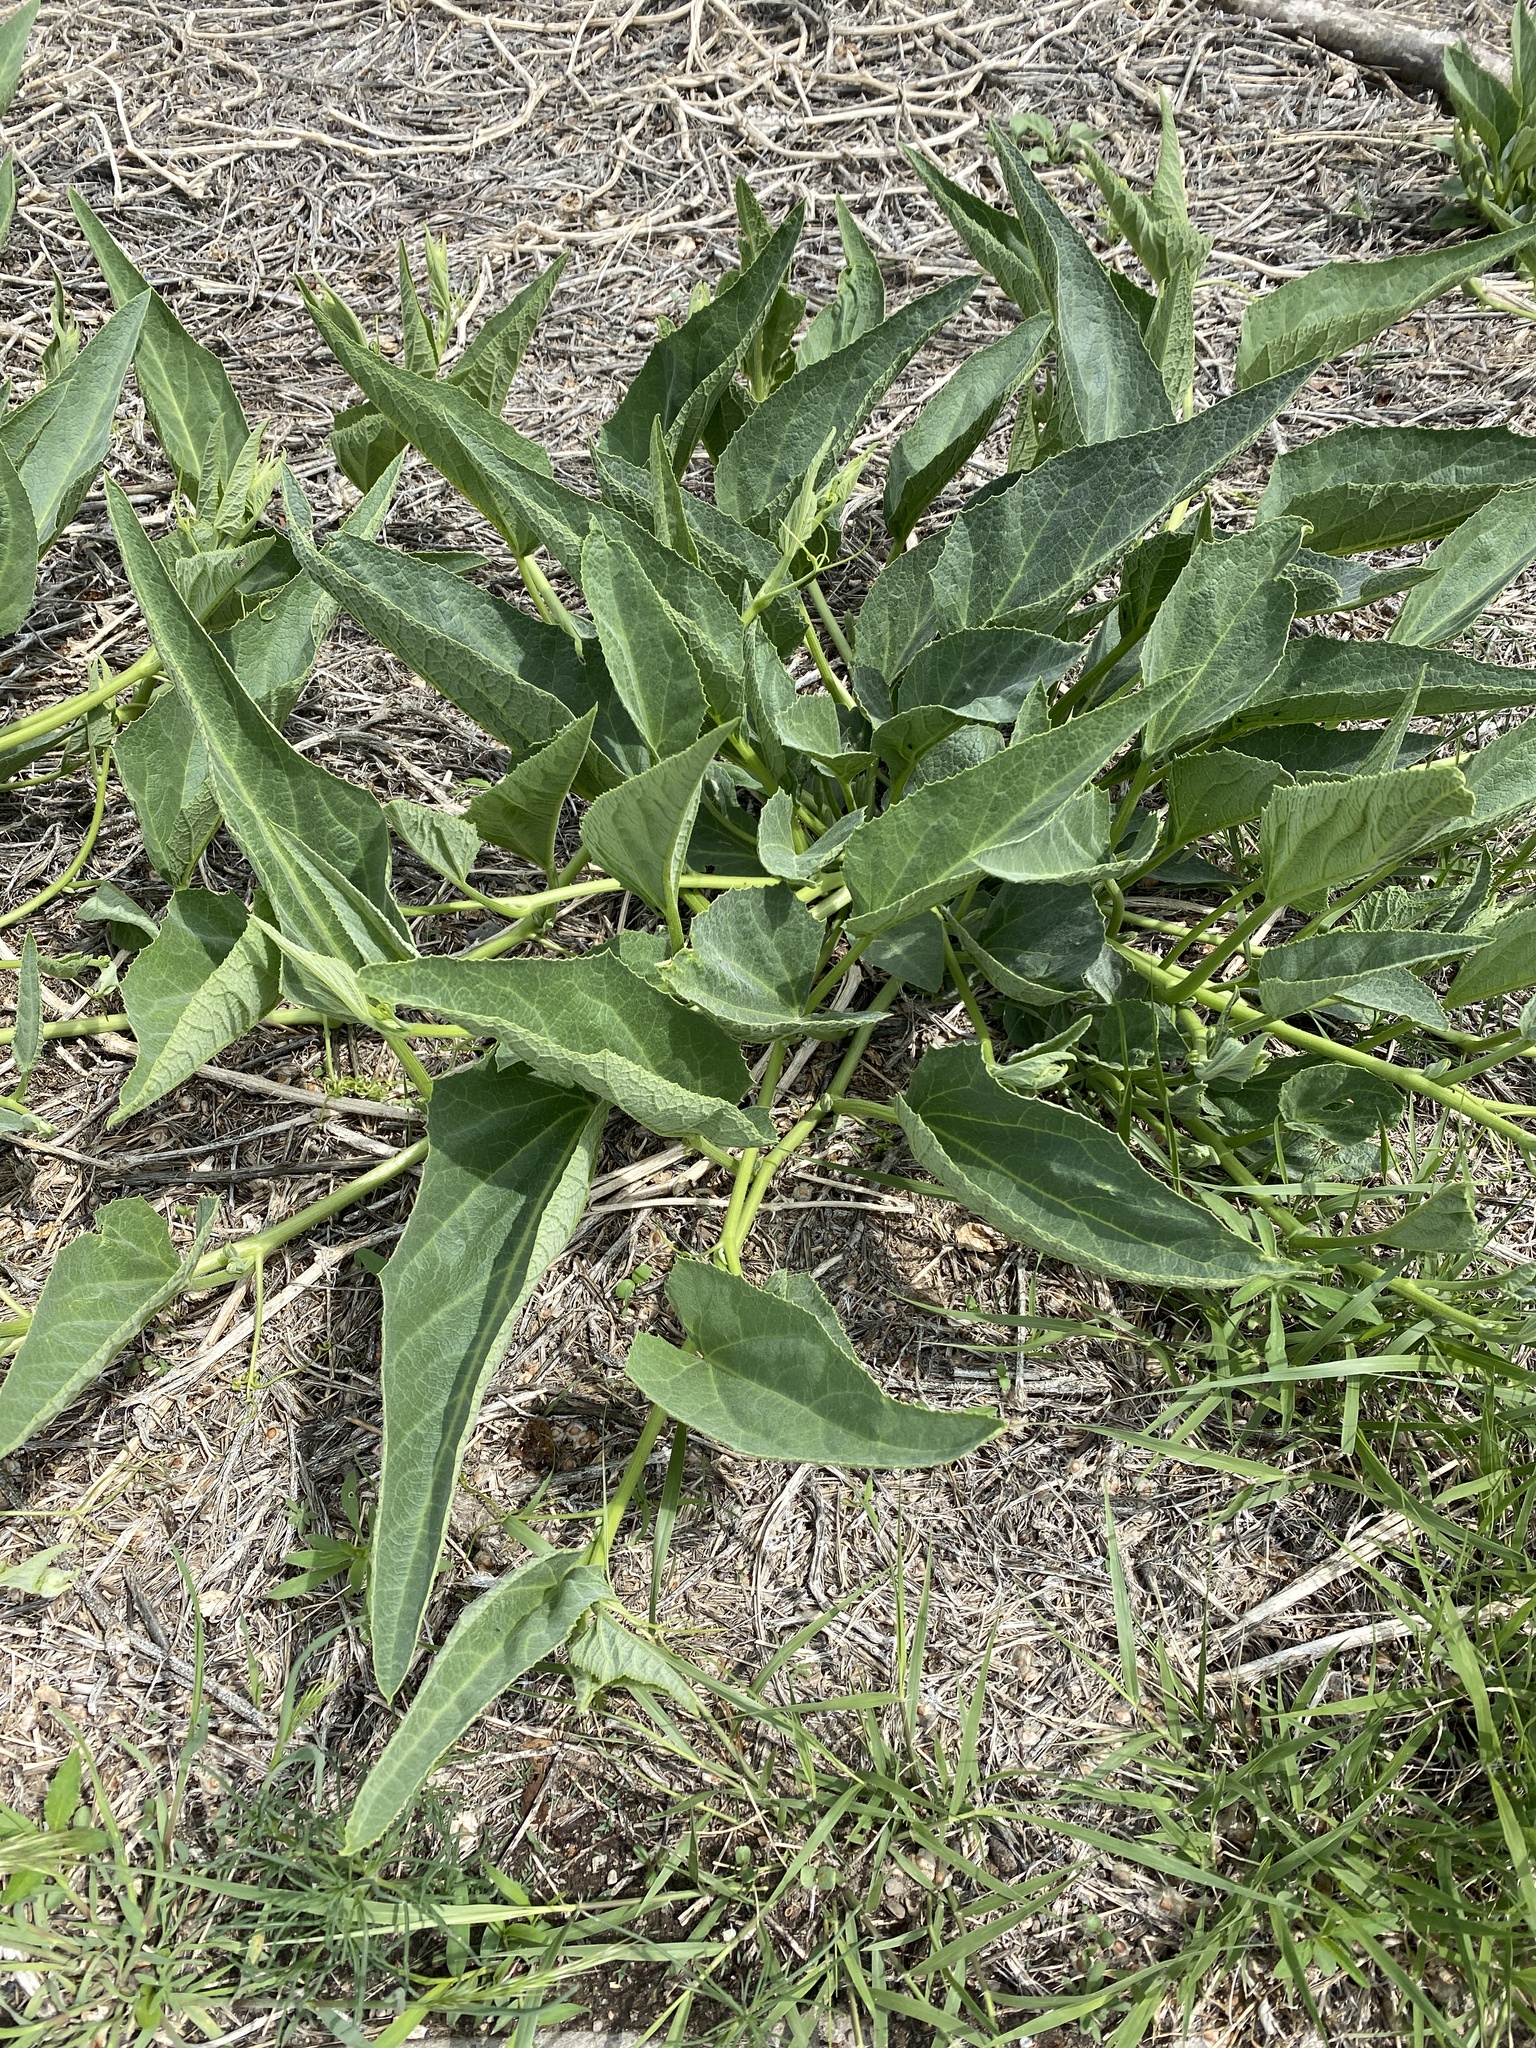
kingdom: Plantae
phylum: Tracheophyta
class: Magnoliopsida
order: Cucurbitales
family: Cucurbitaceae
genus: Cucurbita
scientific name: Cucurbita foetidissima
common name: Buffalo gourd
